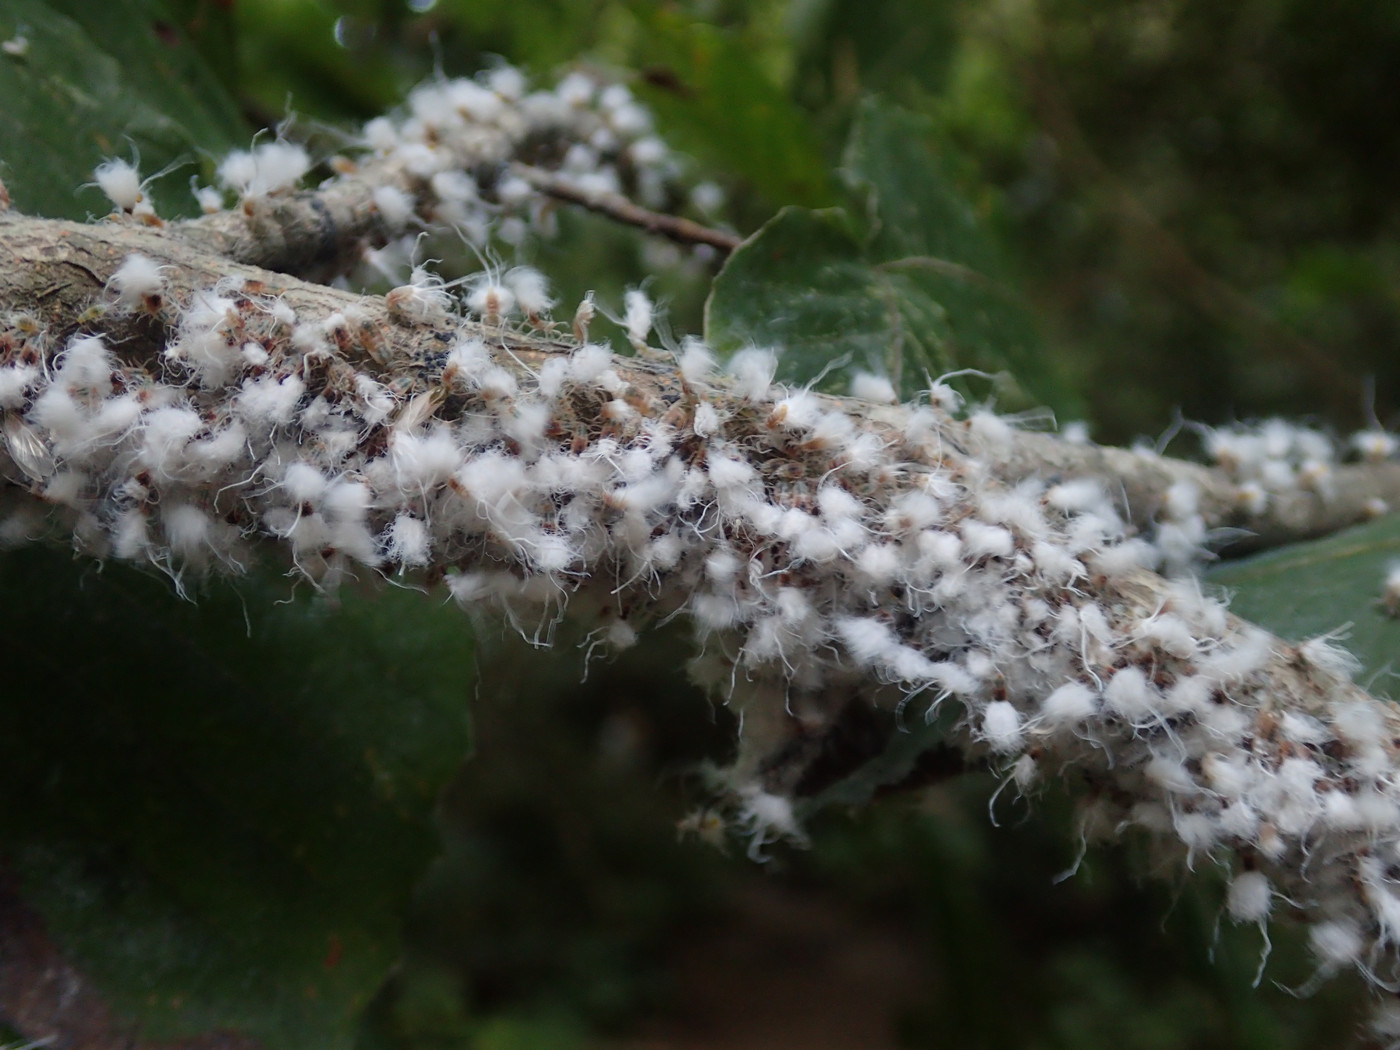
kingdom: Animalia
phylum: Arthropoda
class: Insecta
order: Hemiptera
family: Aphididae
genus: Grylloprociphilus
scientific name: Grylloprociphilus imbricator
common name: Beech blight aphid
